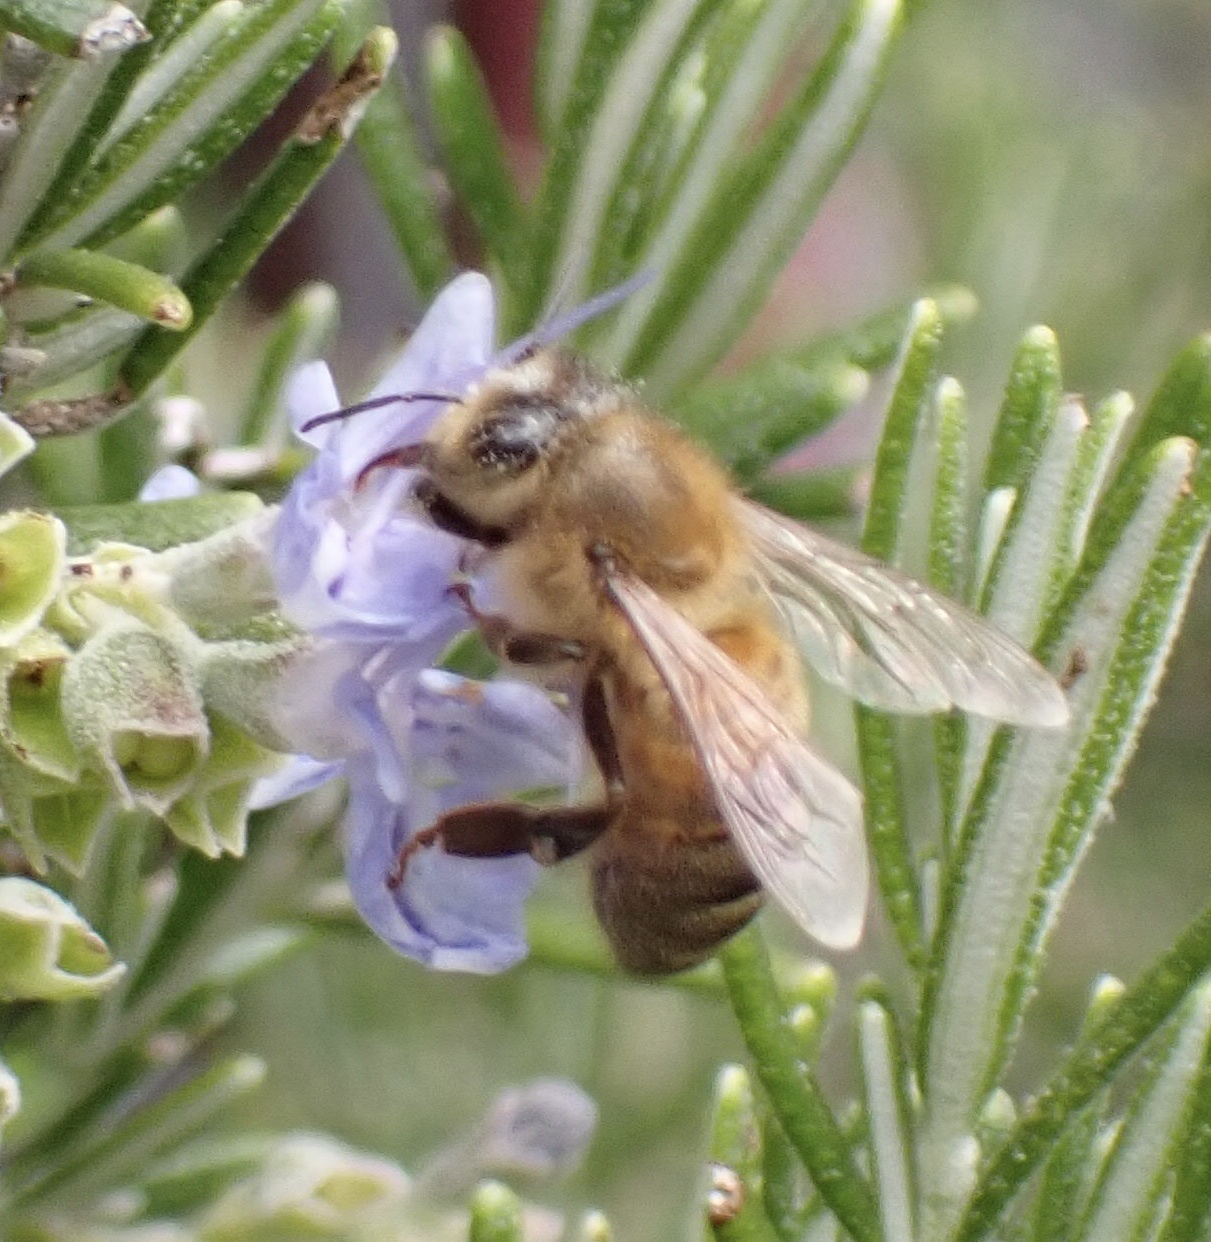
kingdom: Animalia
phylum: Arthropoda
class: Insecta
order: Hymenoptera
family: Apidae
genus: Apis
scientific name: Apis mellifera
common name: Honey bee
